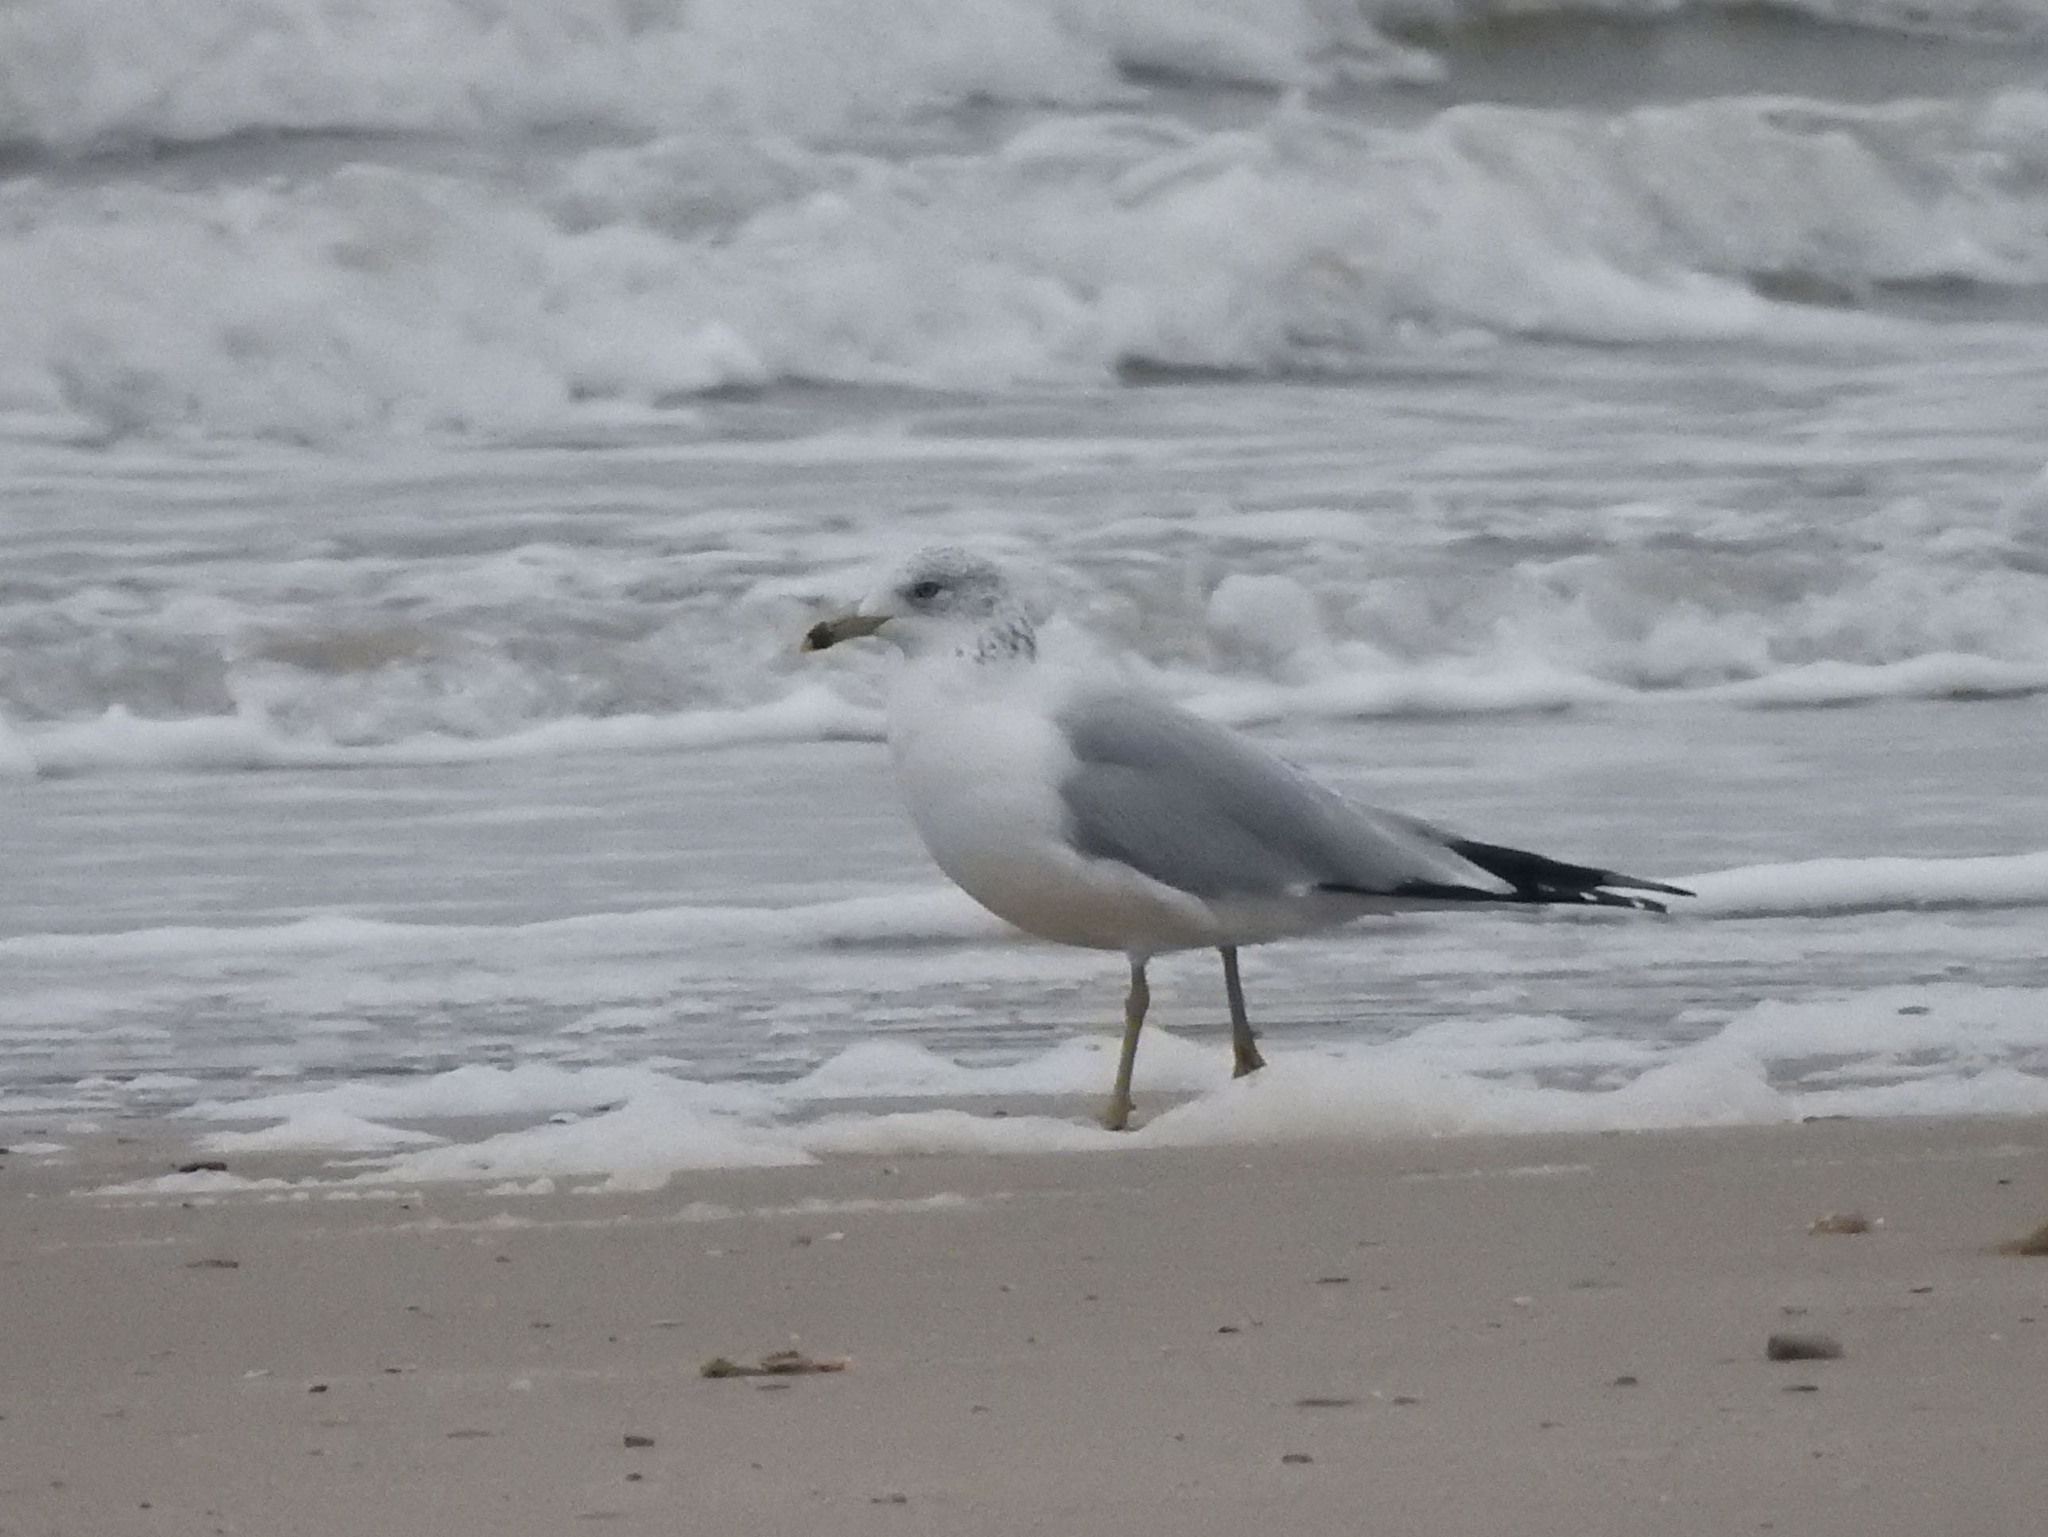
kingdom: Animalia
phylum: Chordata
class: Aves
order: Charadriiformes
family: Laridae
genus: Larus
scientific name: Larus delawarensis
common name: Ring-billed gull
